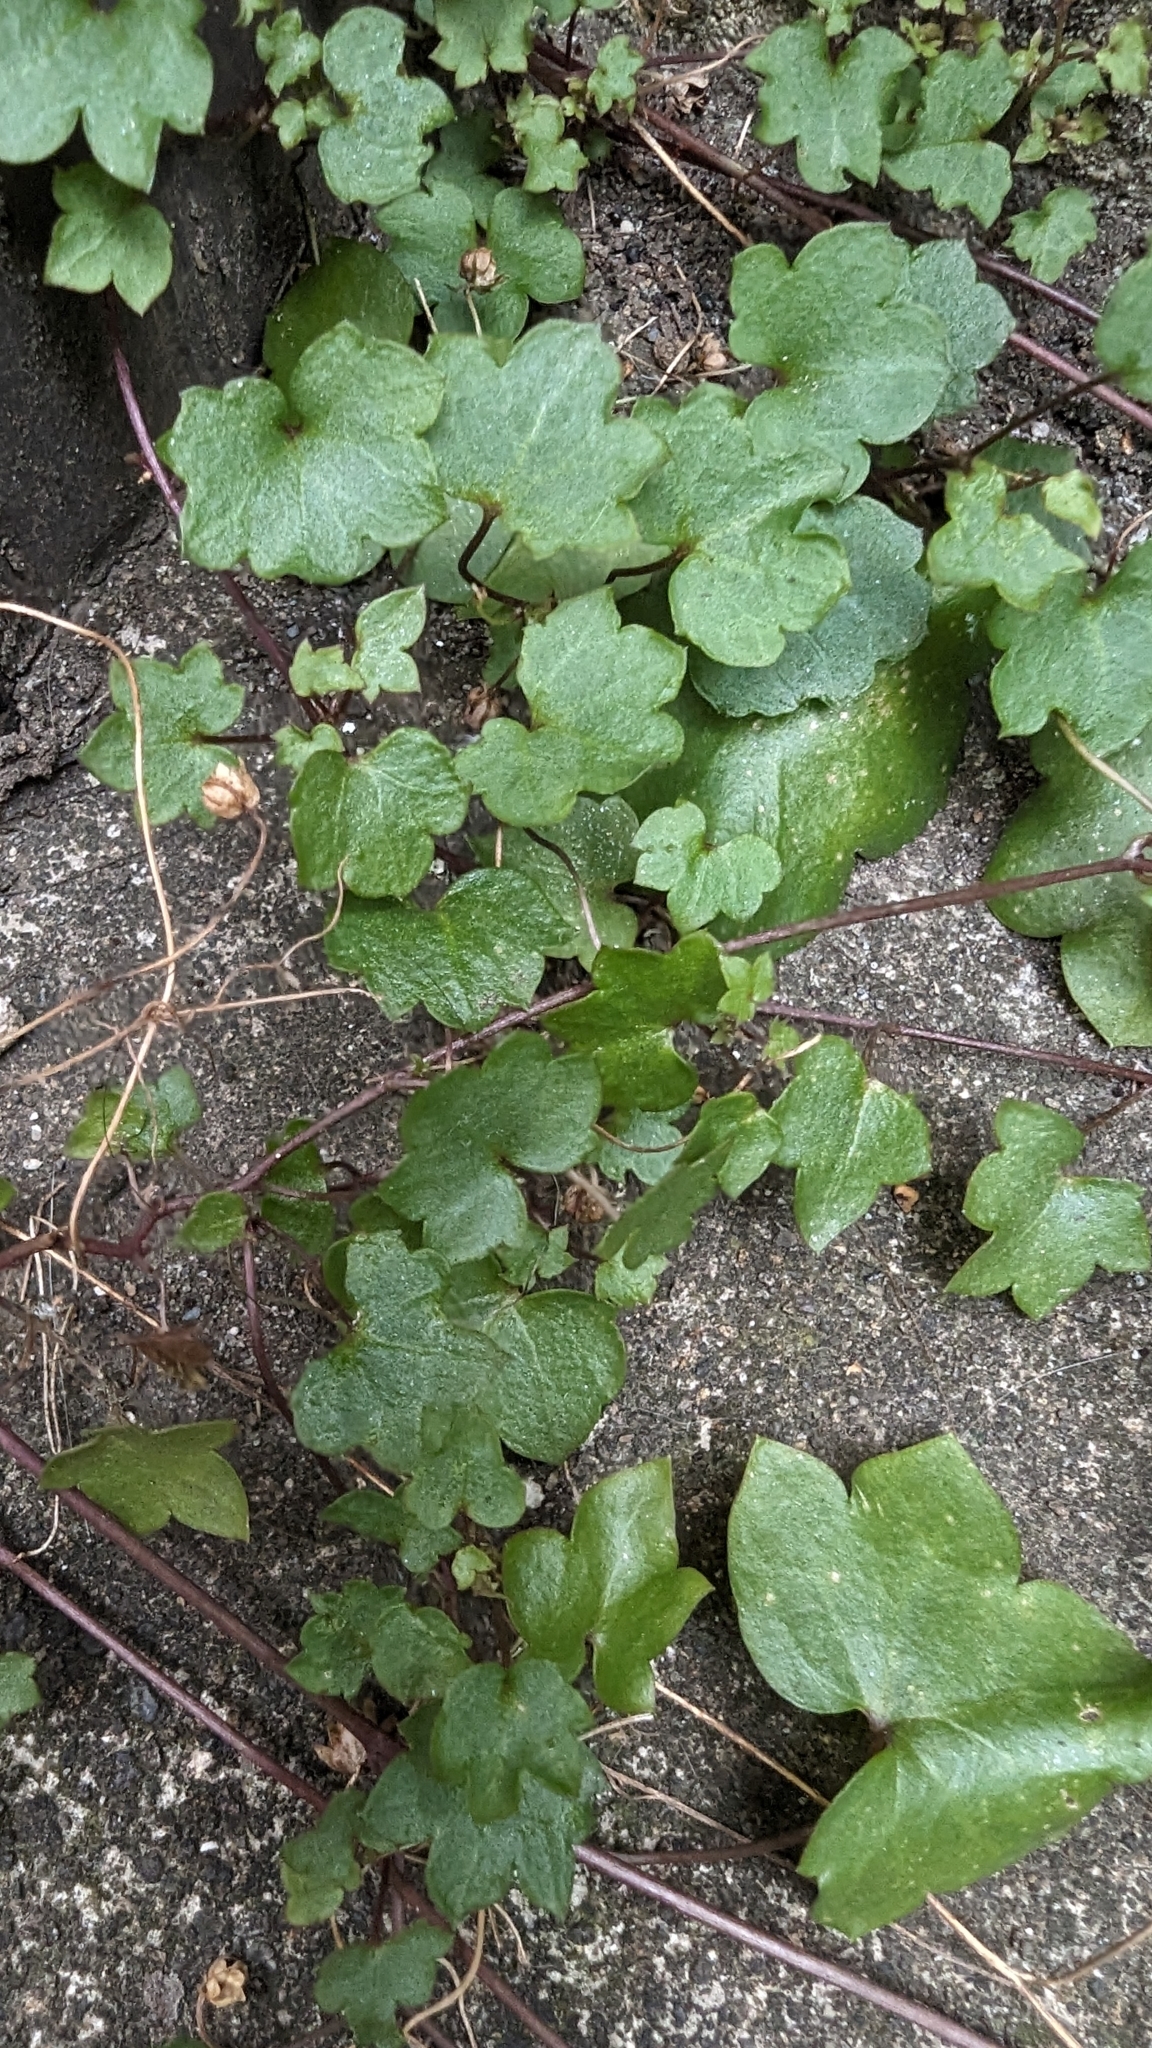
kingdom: Plantae
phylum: Tracheophyta
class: Magnoliopsida
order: Lamiales
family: Plantaginaceae
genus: Cymbalaria
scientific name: Cymbalaria muralis
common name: Ivy-leaved toadflax
